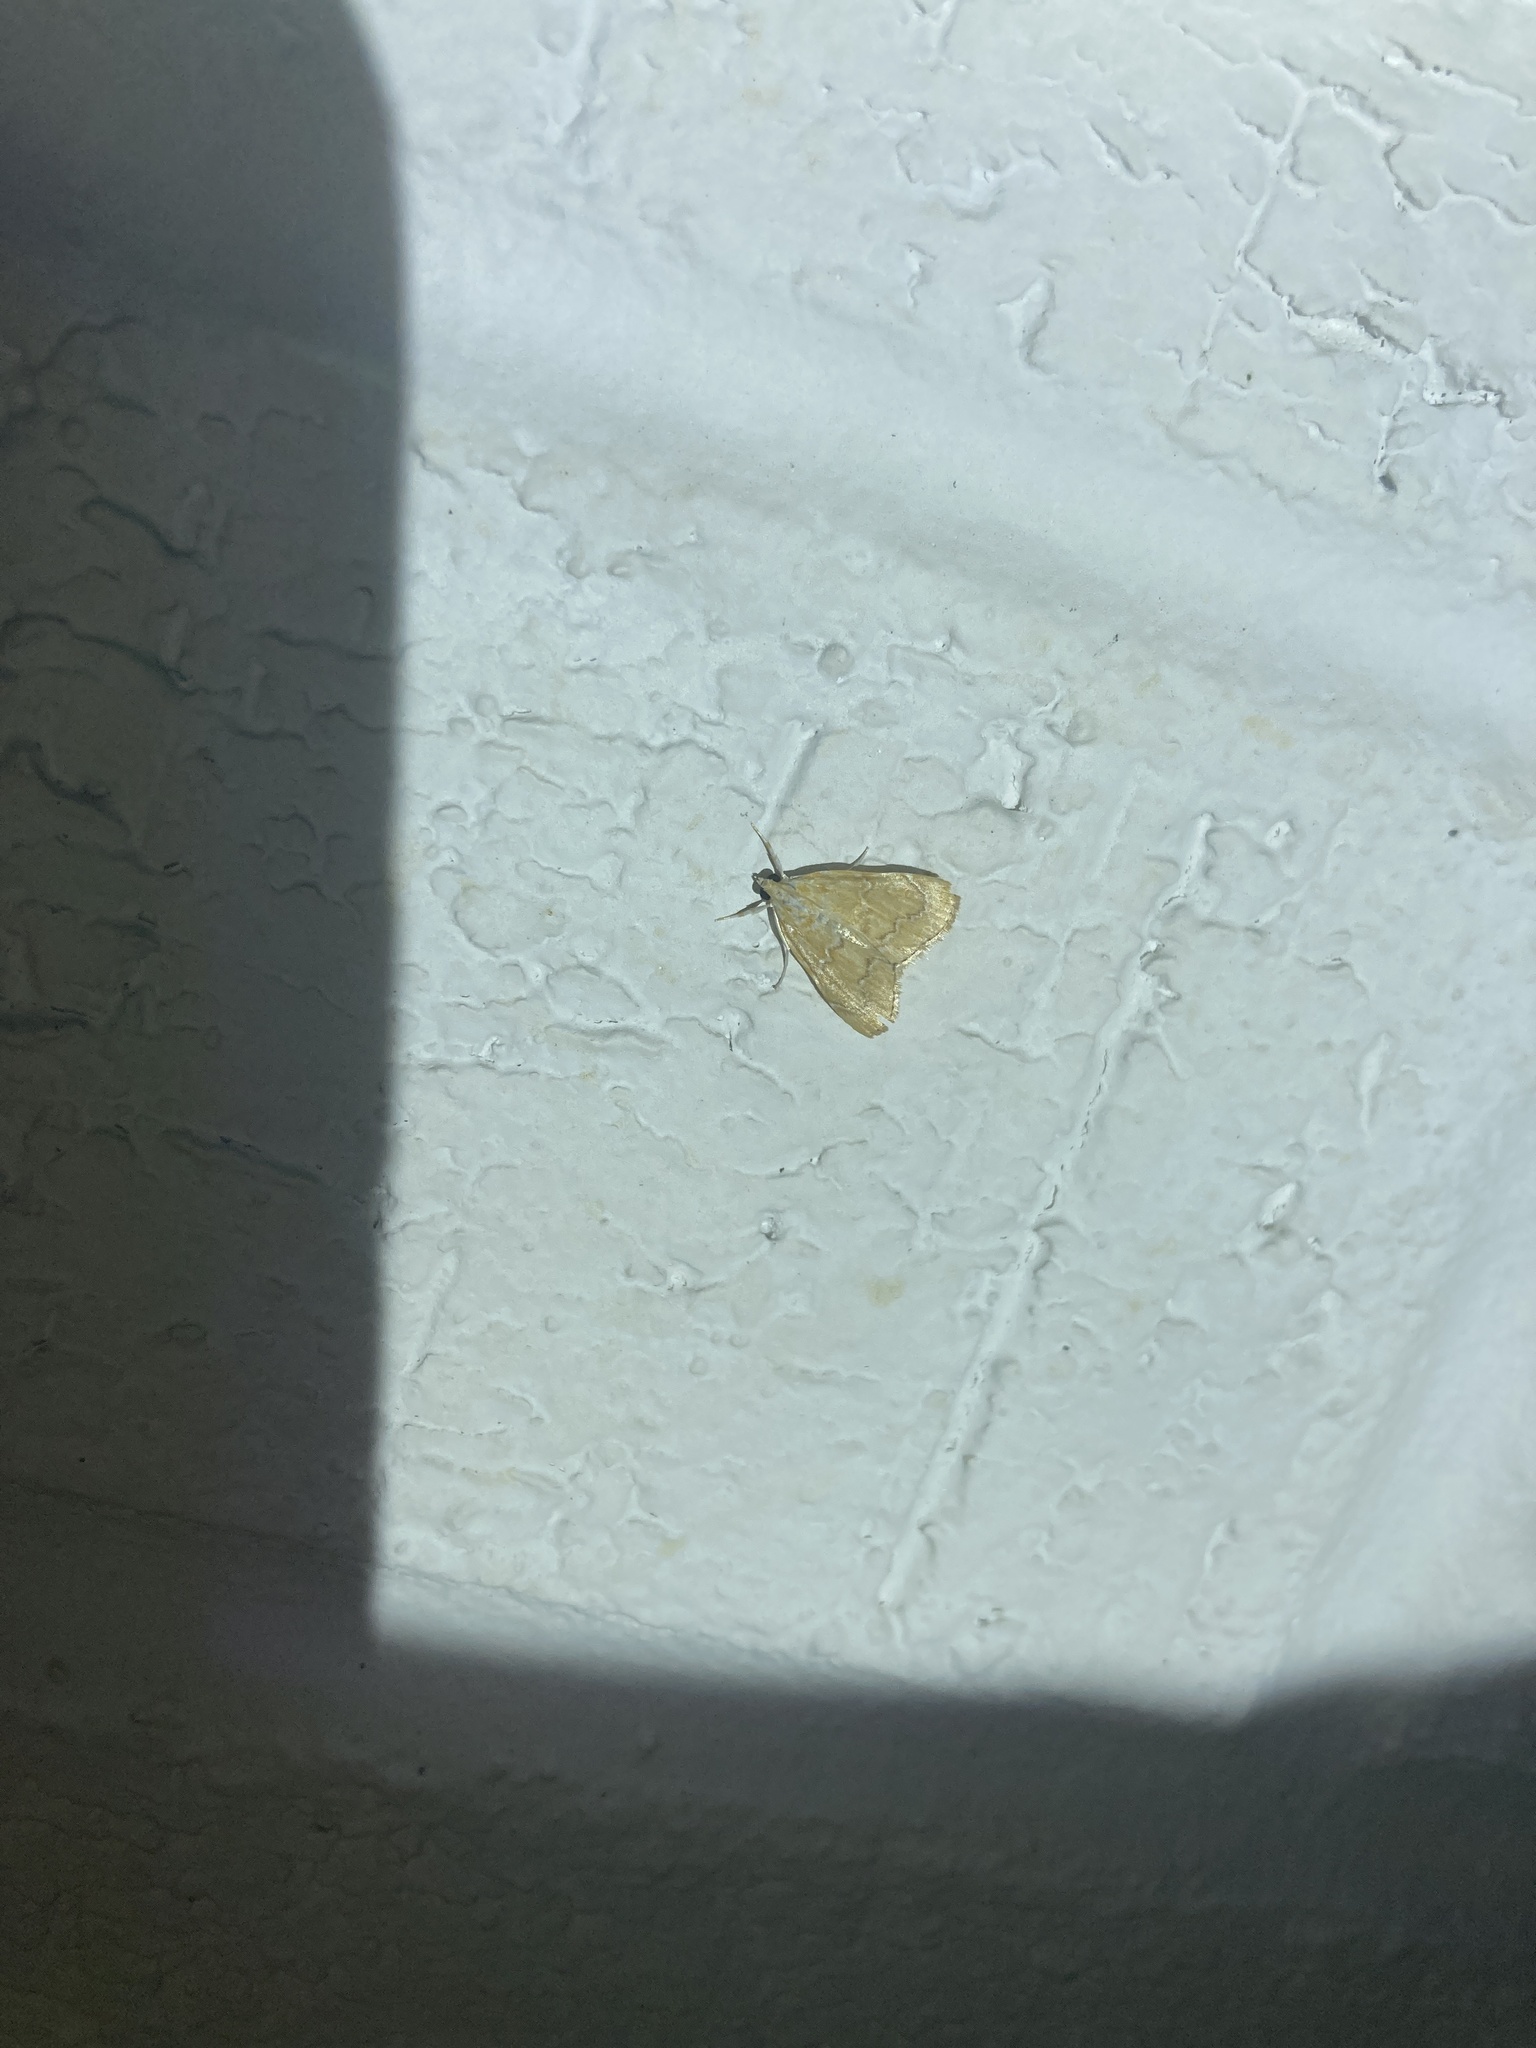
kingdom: Animalia
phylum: Arthropoda
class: Insecta
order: Lepidoptera
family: Crambidae
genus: Glaphyria
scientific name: Glaphyria sesquistrialis
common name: White-roped glaphyria
